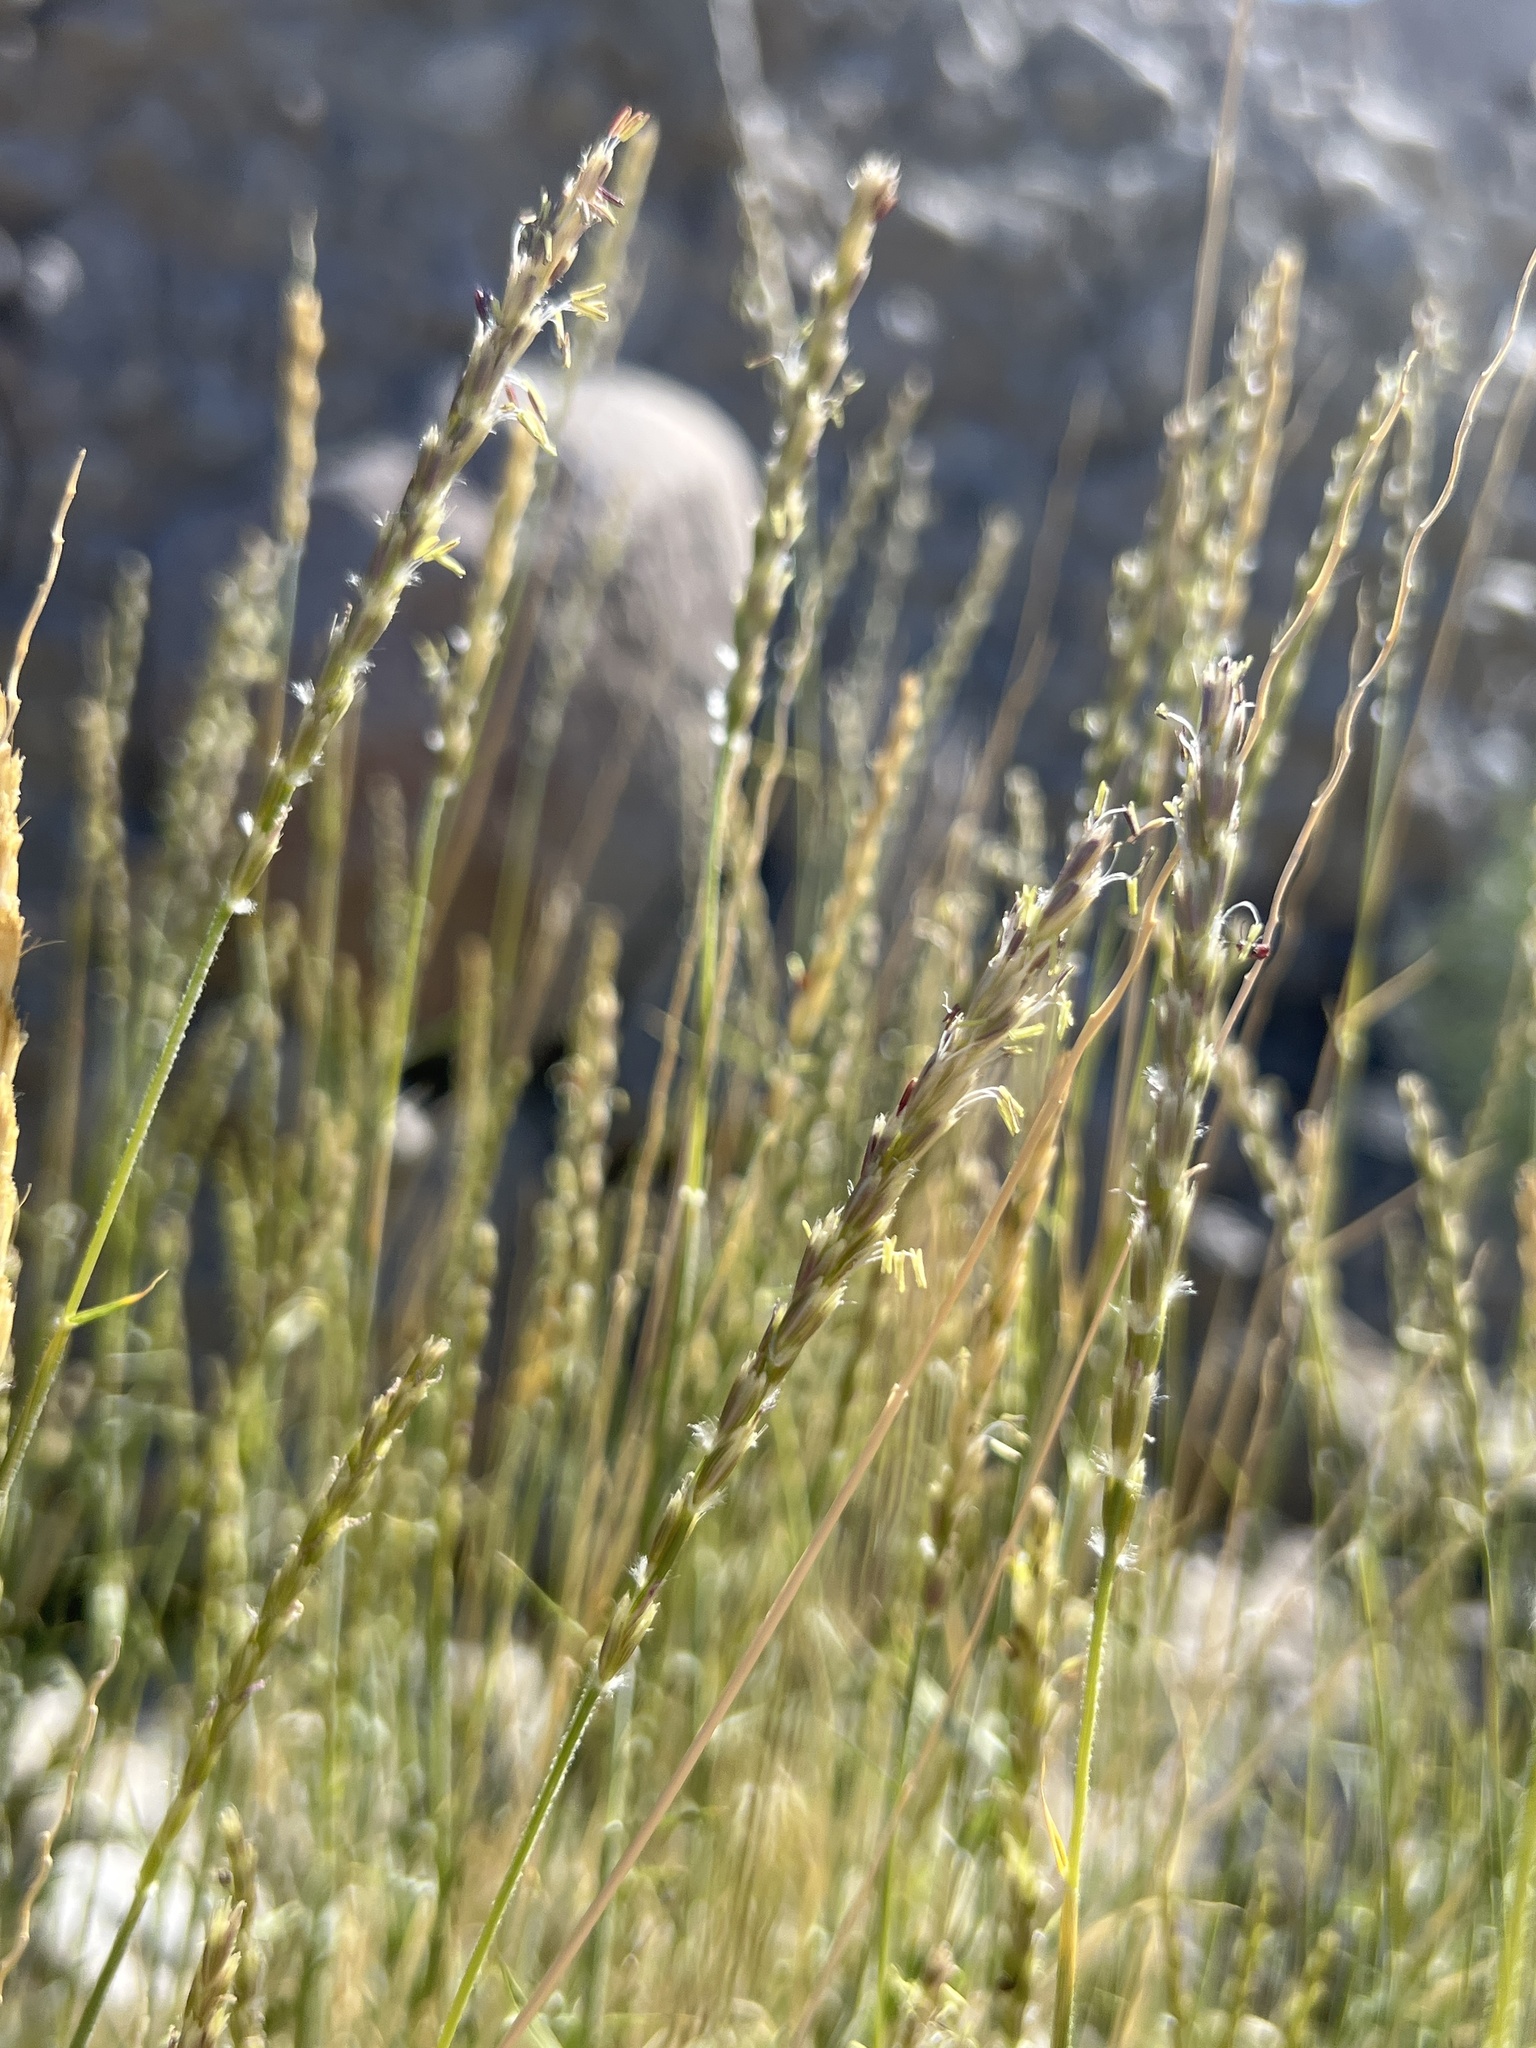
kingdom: Plantae
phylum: Tracheophyta
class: Liliopsida
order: Poales
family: Poaceae
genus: Hilaria
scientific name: Hilaria rigida
